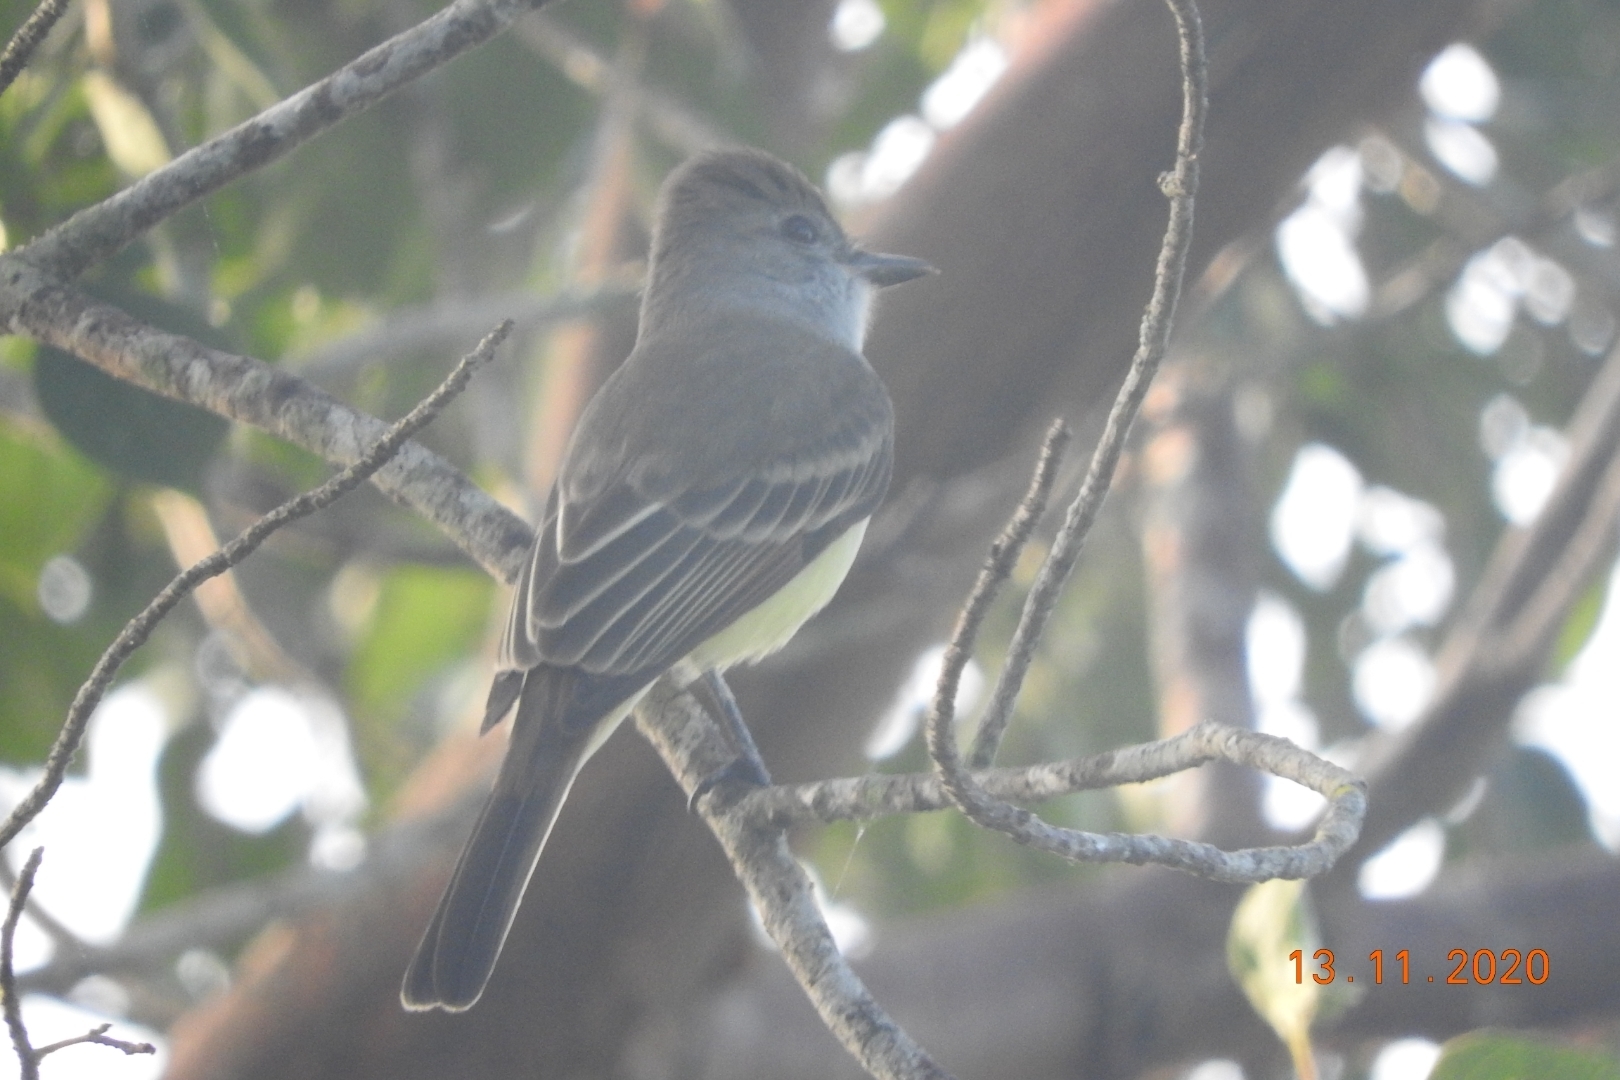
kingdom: Animalia
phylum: Chordata
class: Aves
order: Passeriformes
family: Tyrannidae
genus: Myiarchus
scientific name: Myiarchus tuberculifer
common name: Dusky-capped flycatcher
